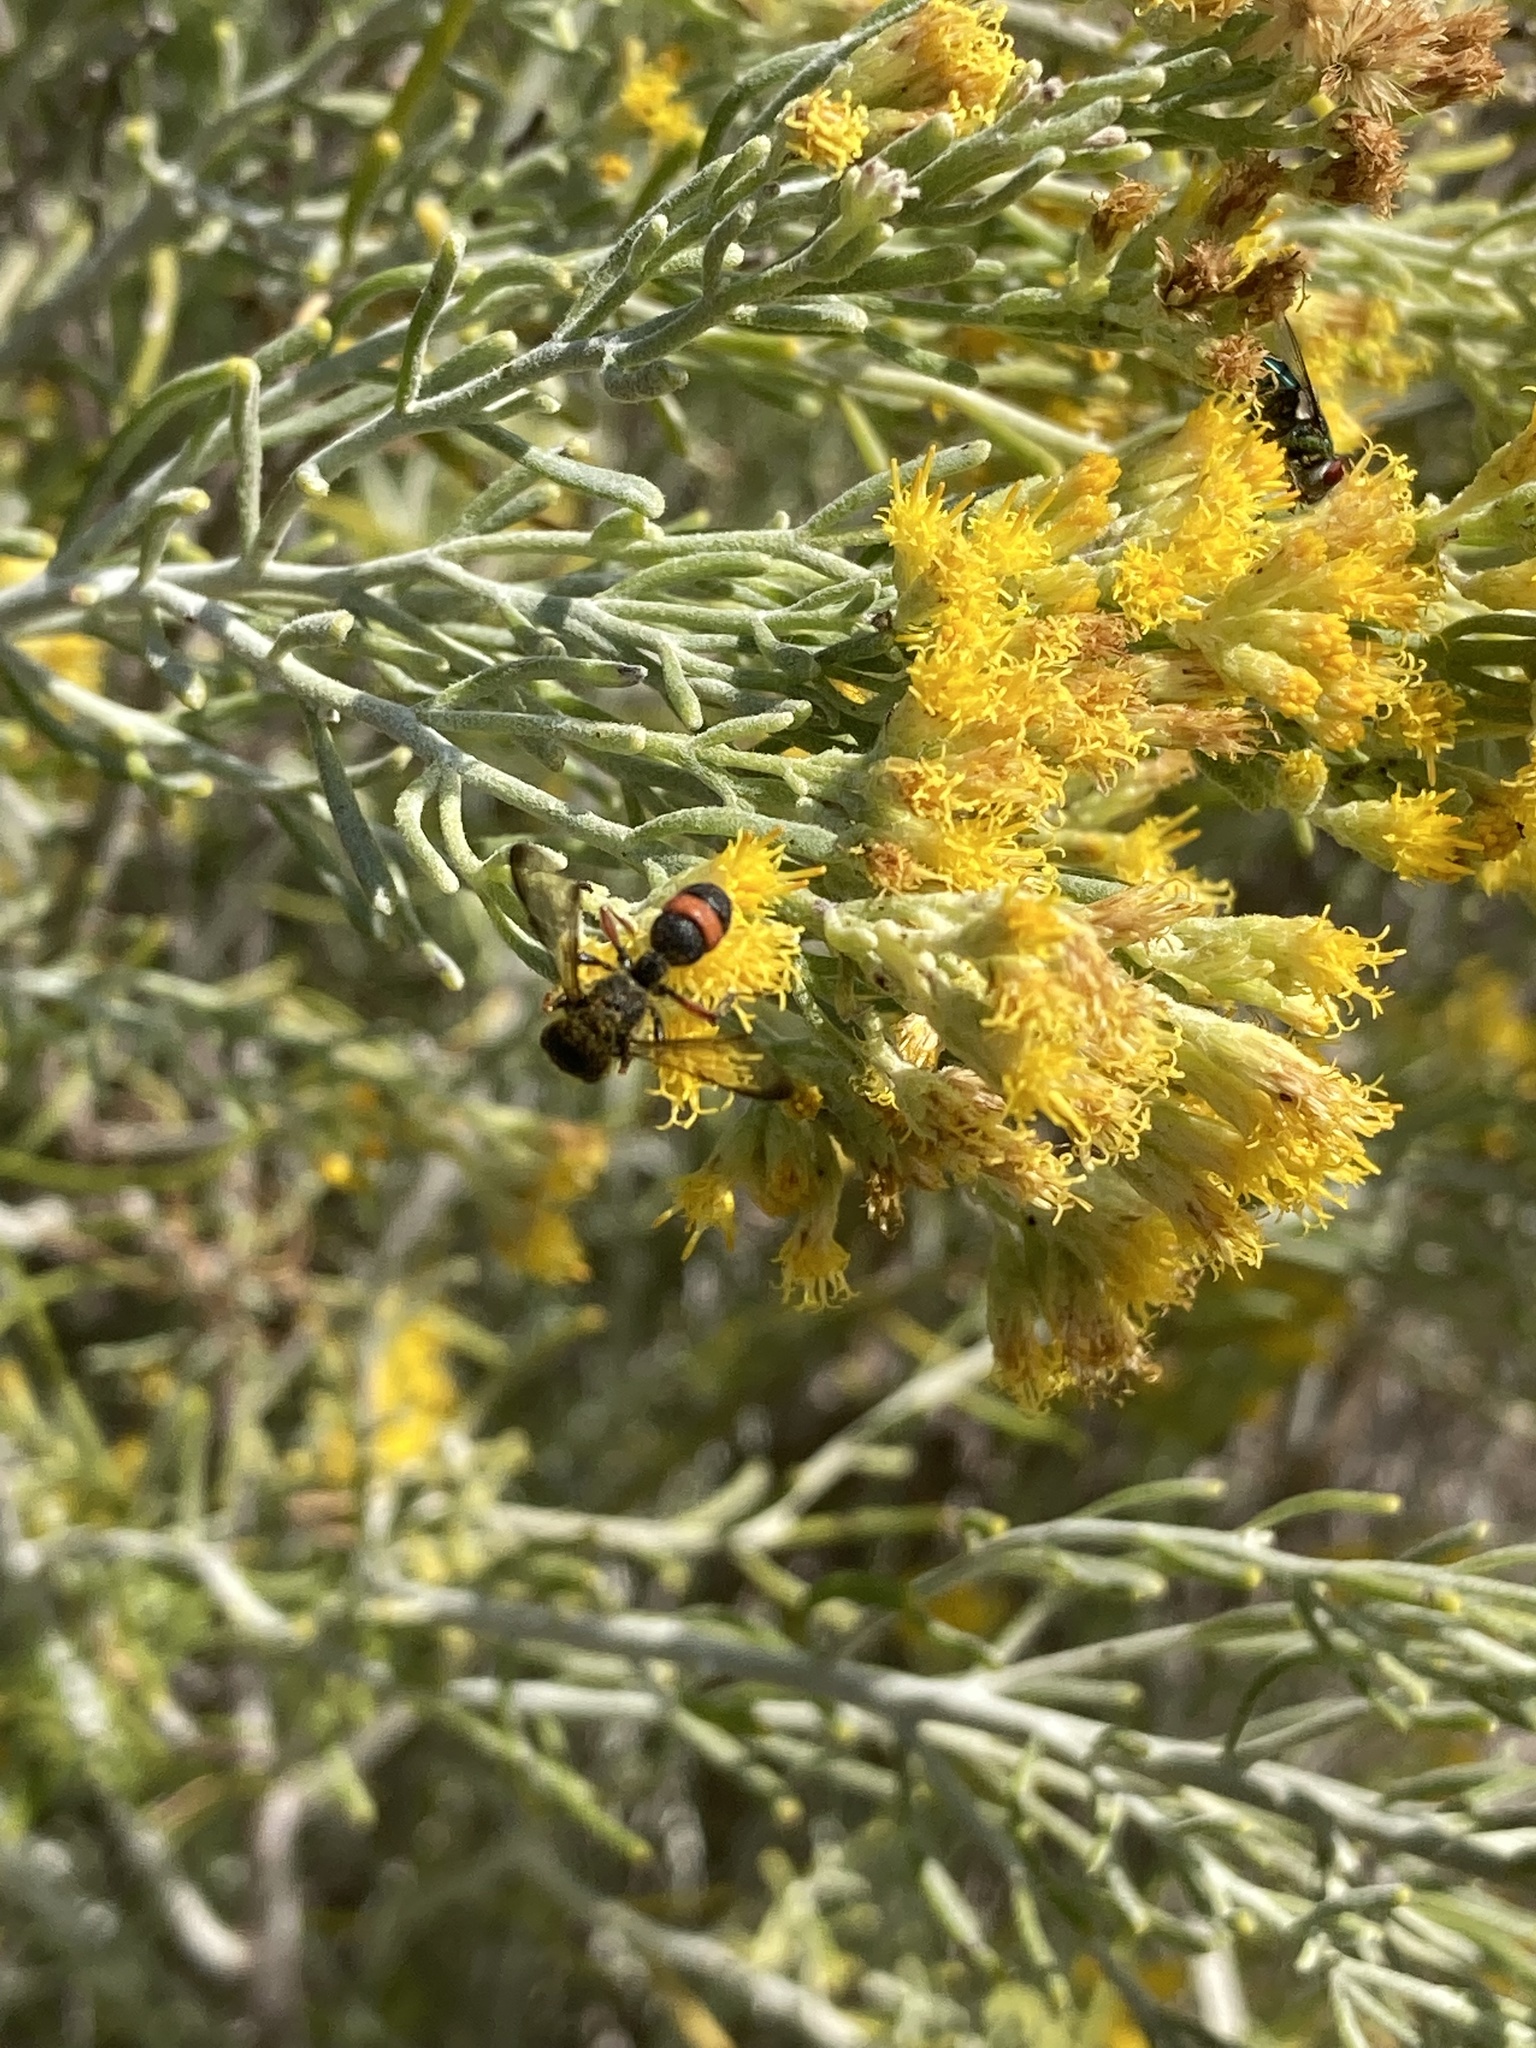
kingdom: Animalia
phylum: Arthropoda
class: Insecta
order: Hymenoptera
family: Crabronidae
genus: Cerceris
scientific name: Cerceris concinna
